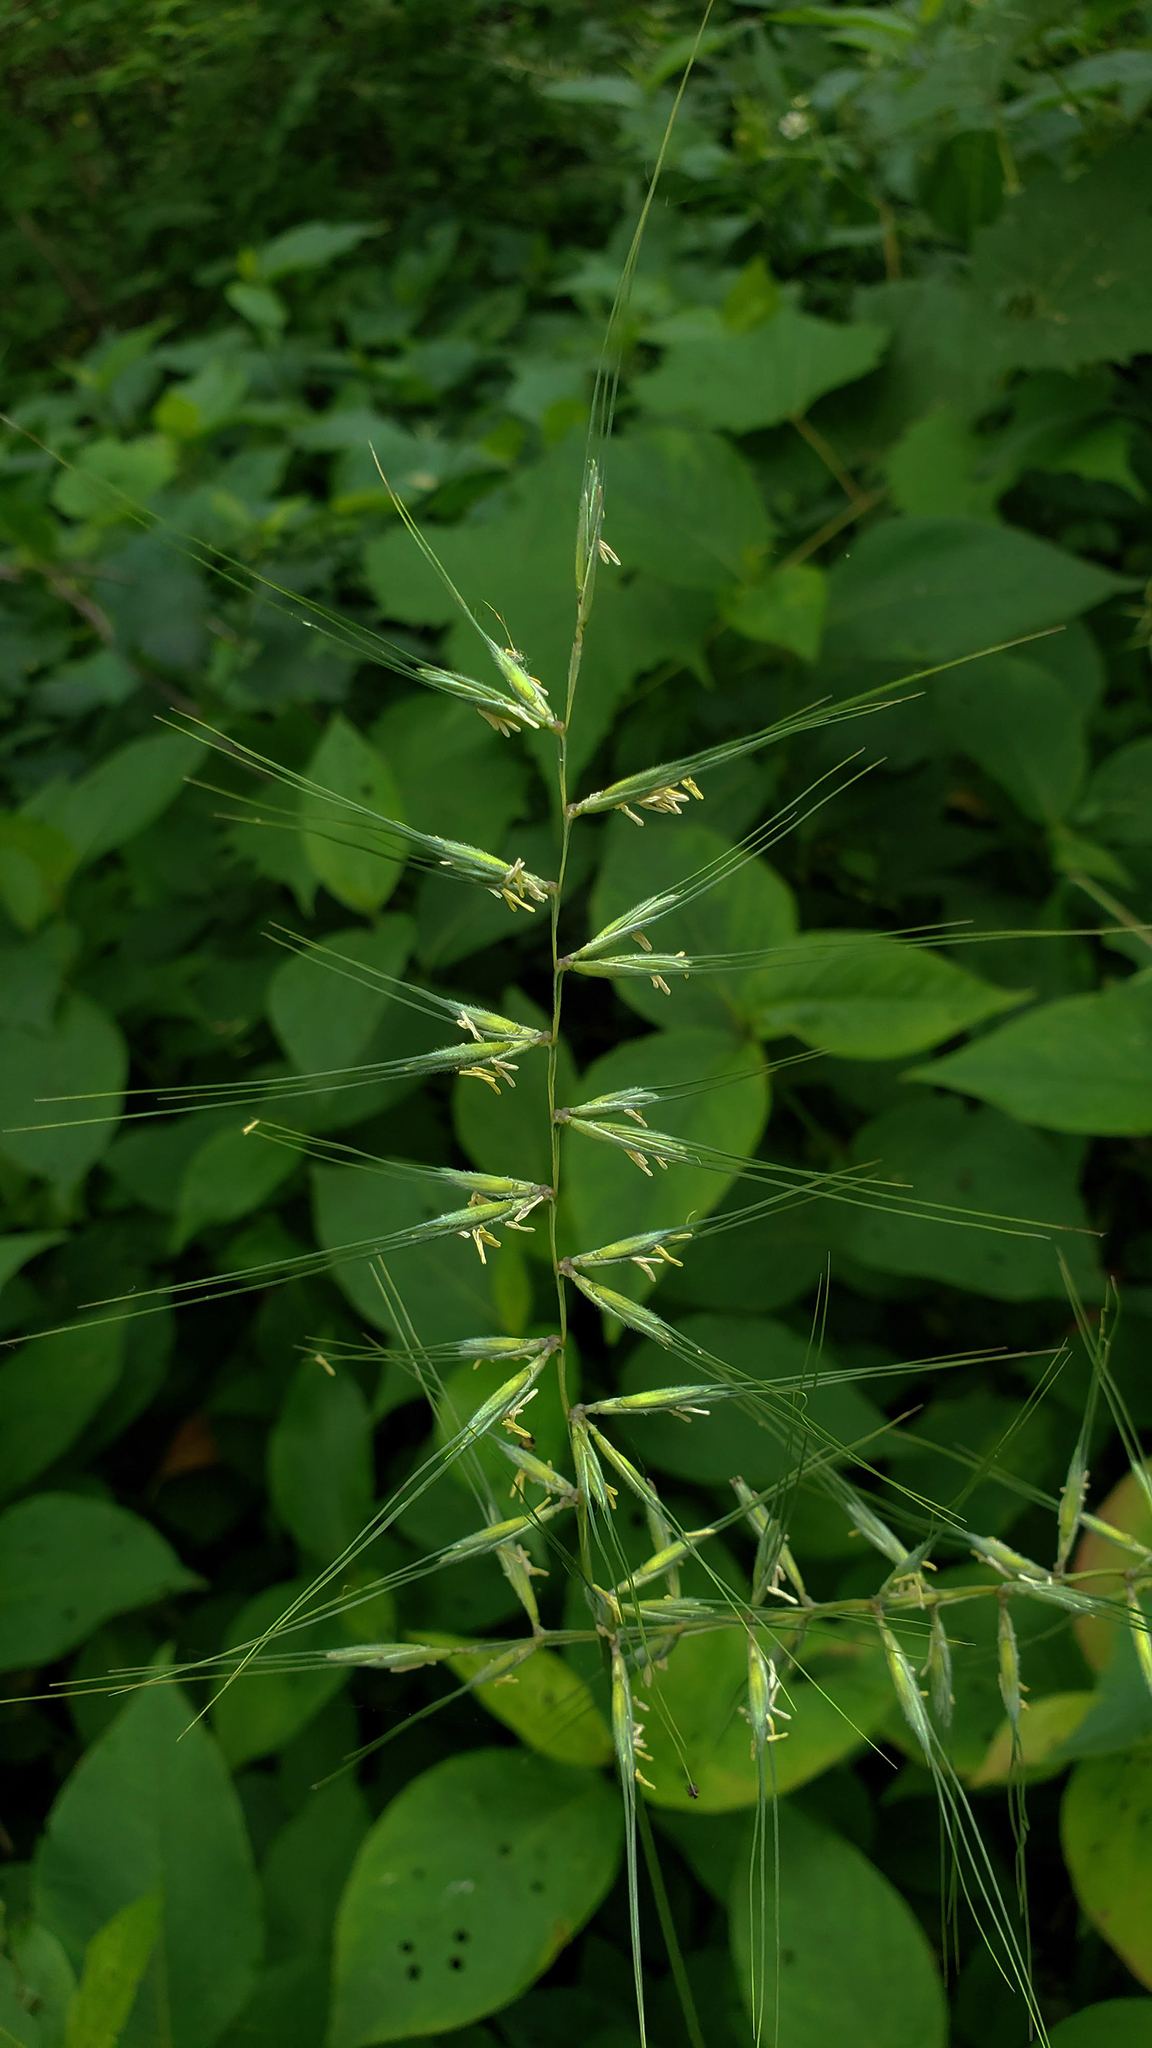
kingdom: Plantae
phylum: Tracheophyta
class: Liliopsida
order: Poales
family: Poaceae
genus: Elymus
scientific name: Elymus hystrix
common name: Bottlebrush grass
